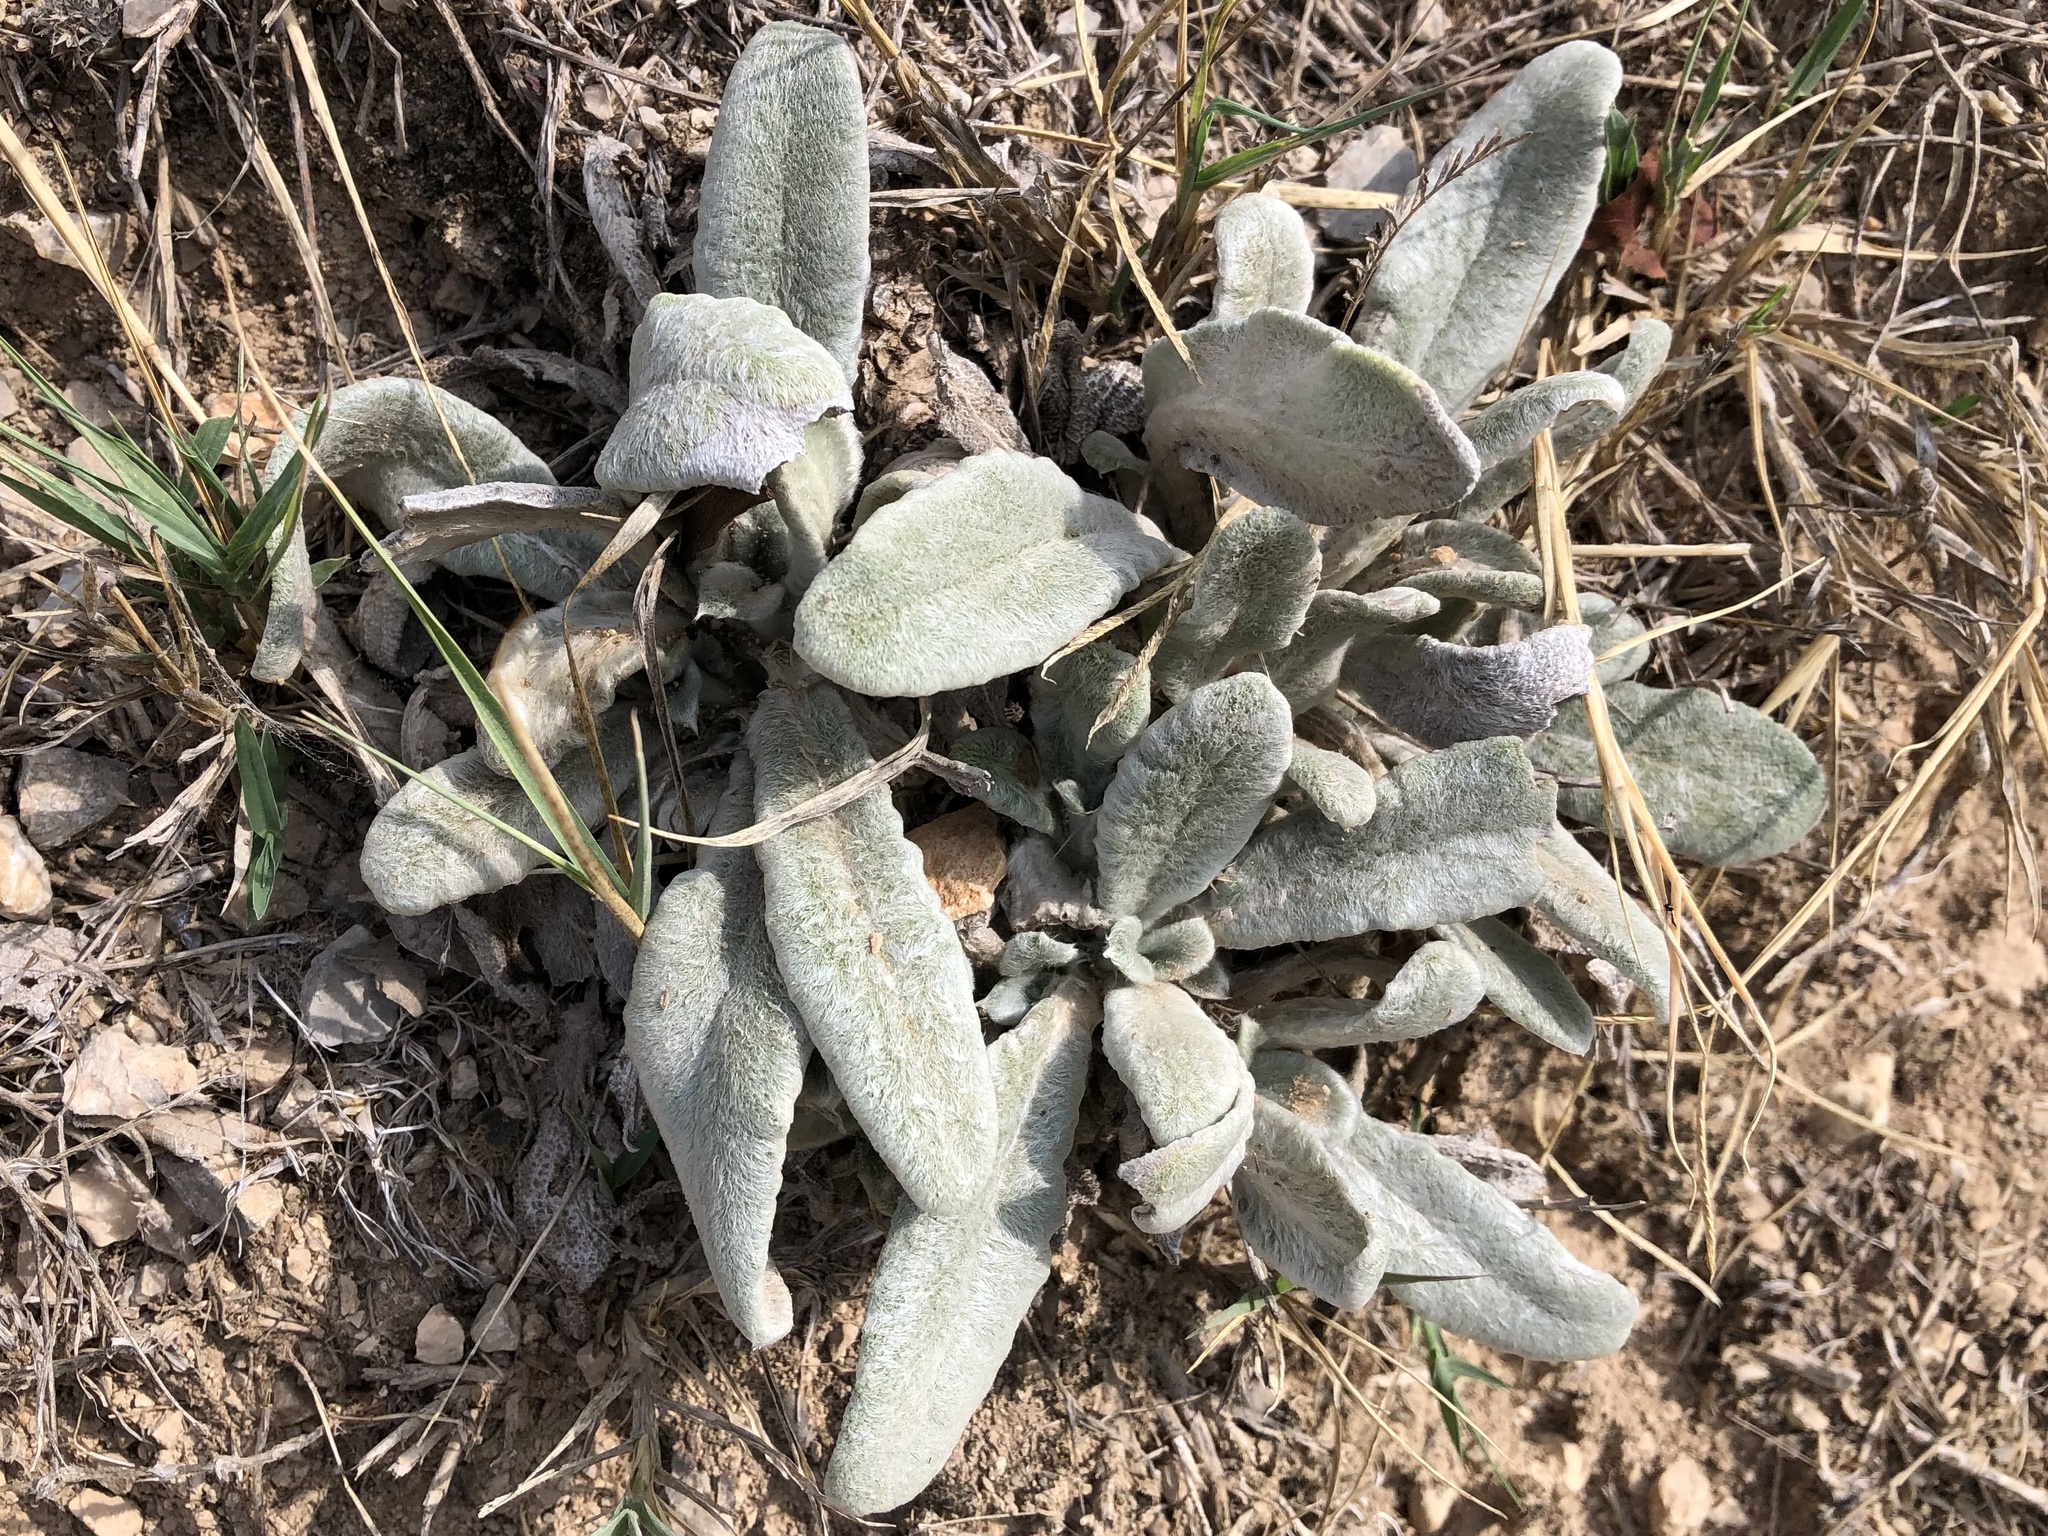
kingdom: Plantae
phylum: Tracheophyta
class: Magnoliopsida
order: Lamiales
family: Lamiaceae
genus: Stachys
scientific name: Stachys byzantina
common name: Lamb's-ear
